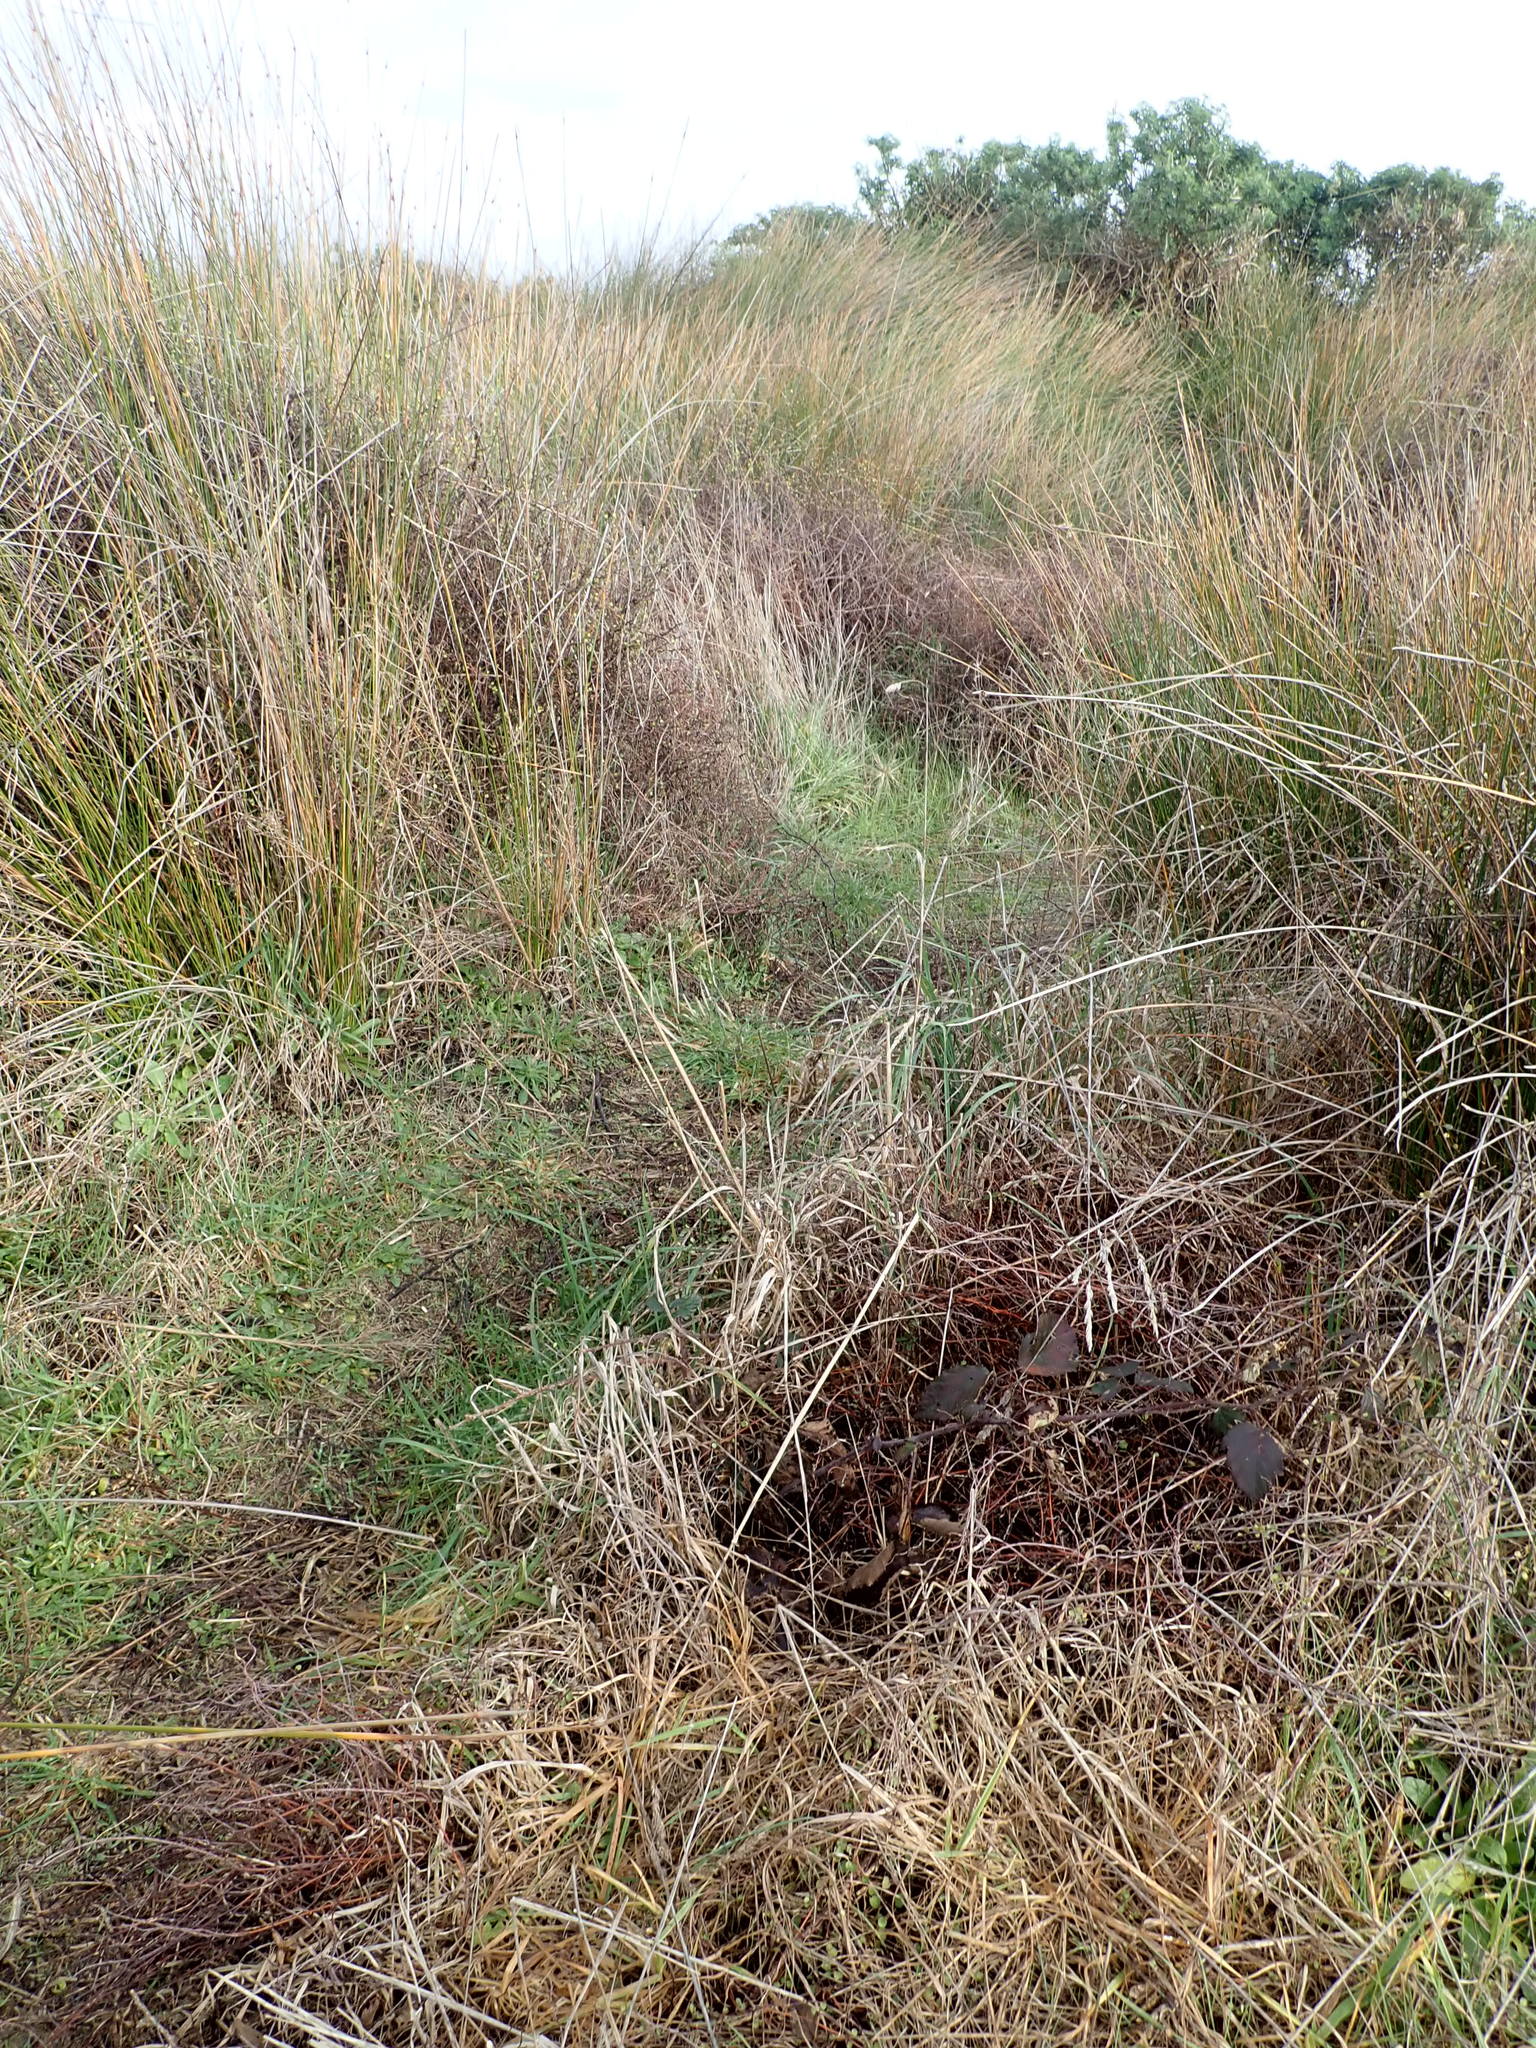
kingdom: Plantae
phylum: Tracheophyta
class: Magnoliopsida
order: Rosales
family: Rosaceae
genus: Rubus
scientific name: Rubus
